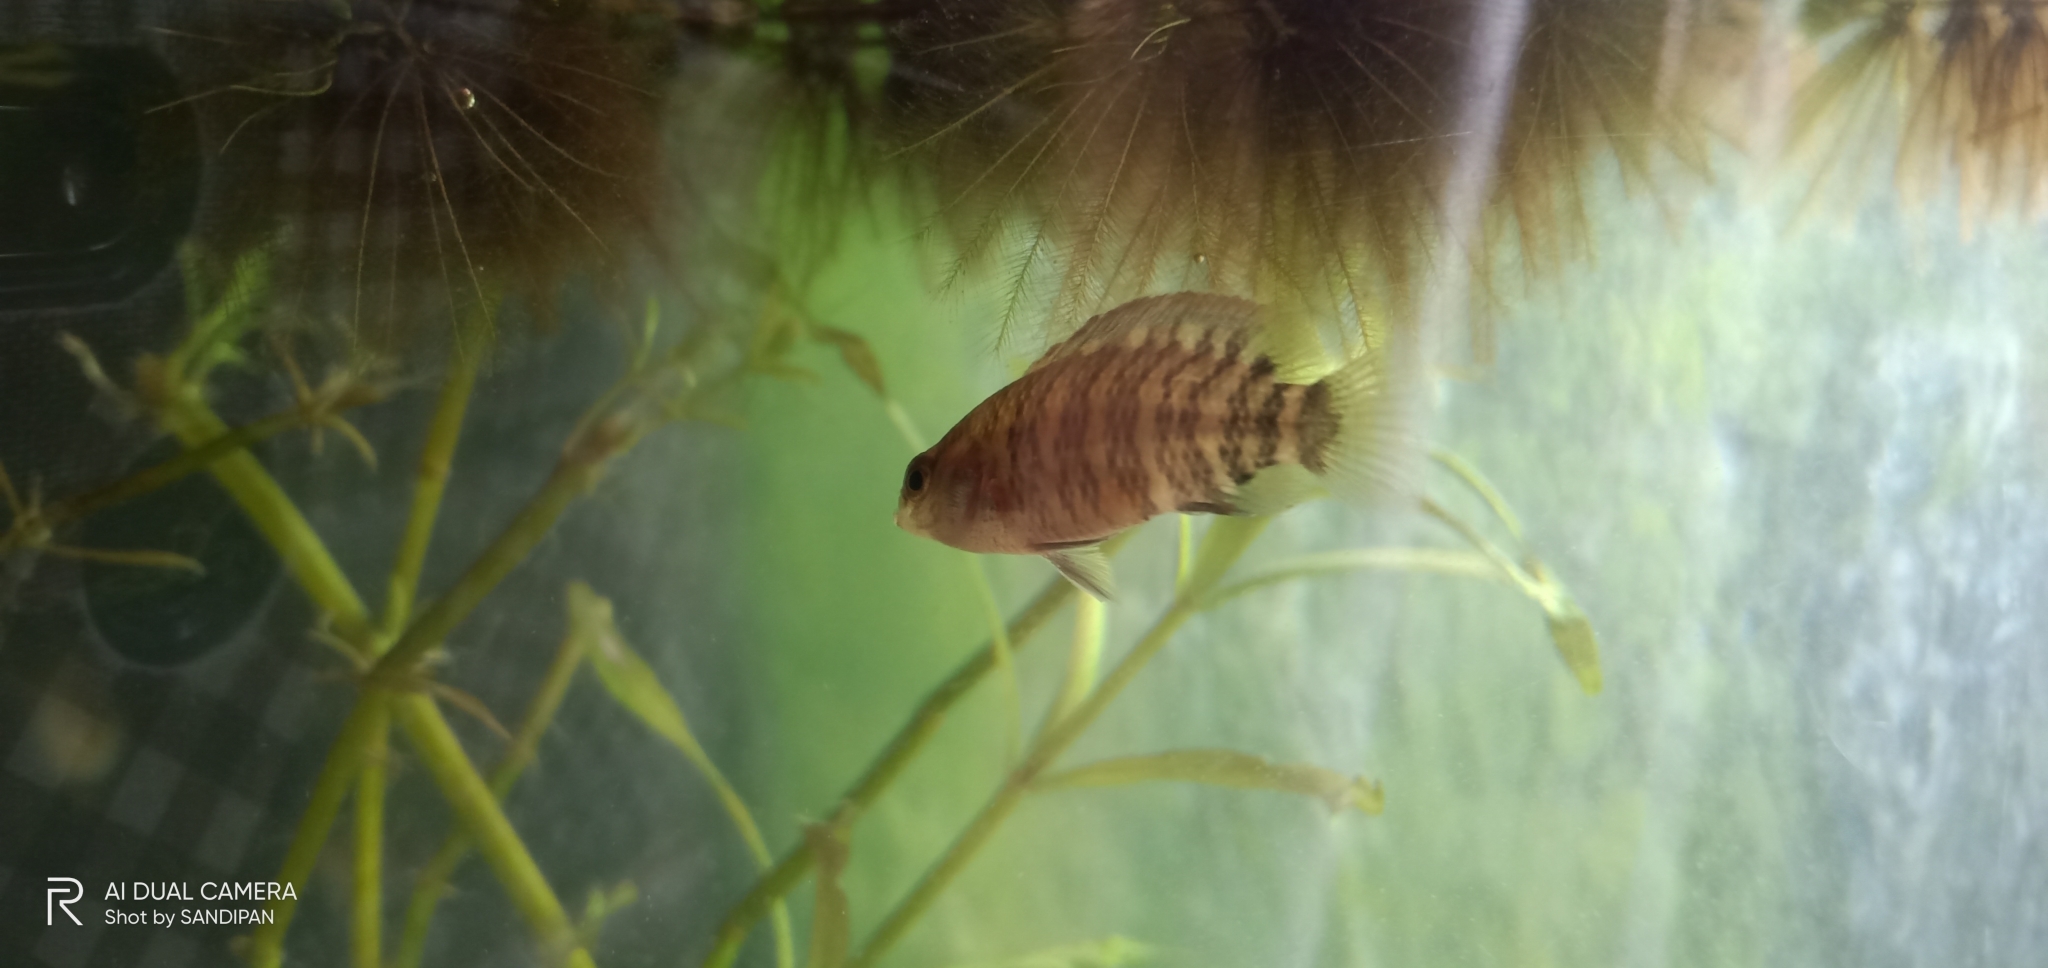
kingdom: Animalia
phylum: Chordata
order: Perciformes
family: Badidae
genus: Badis
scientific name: Badis badis
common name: Badis
